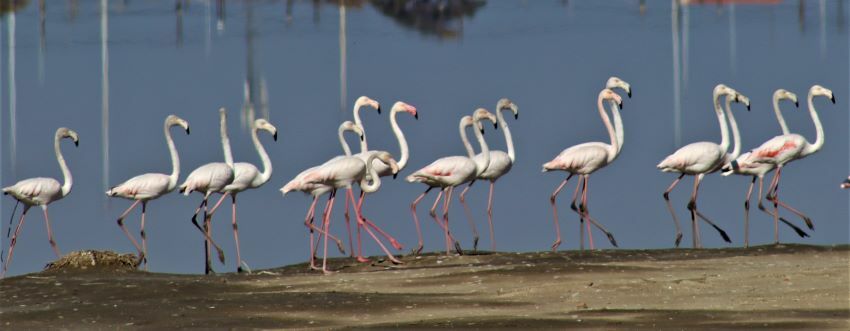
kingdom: Animalia
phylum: Chordata
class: Aves
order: Phoenicopteriformes
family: Phoenicopteridae
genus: Phoenicopterus
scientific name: Phoenicopterus roseus
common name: Greater flamingo
